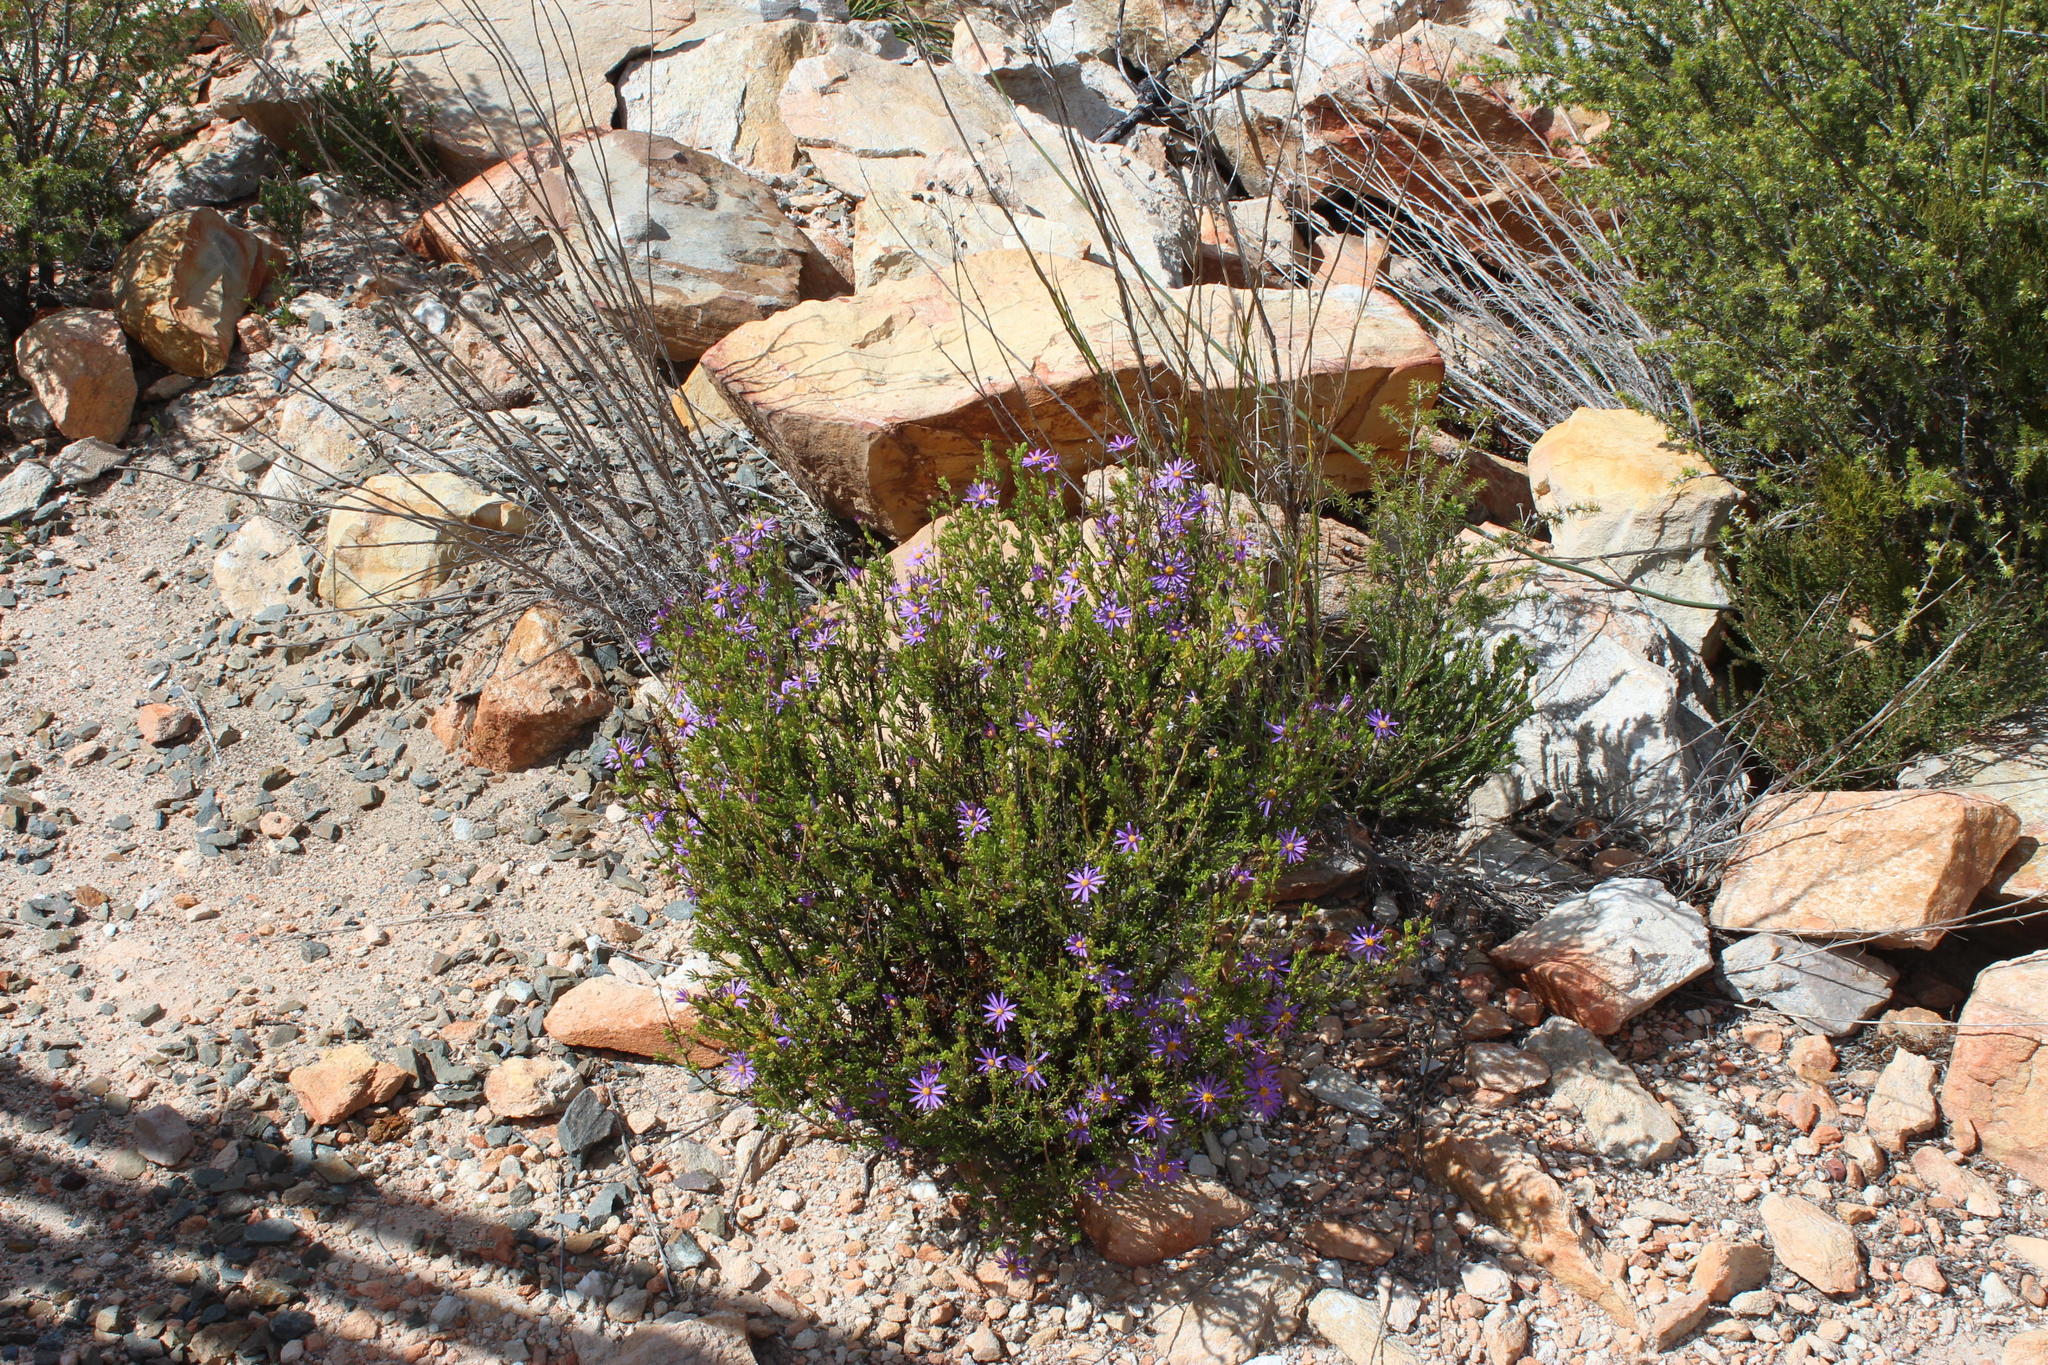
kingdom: Plantae
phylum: Tracheophyta
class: Magnoliopsida
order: Asterales
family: Asteraceae
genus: Felicia
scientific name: Felicia filifolia
